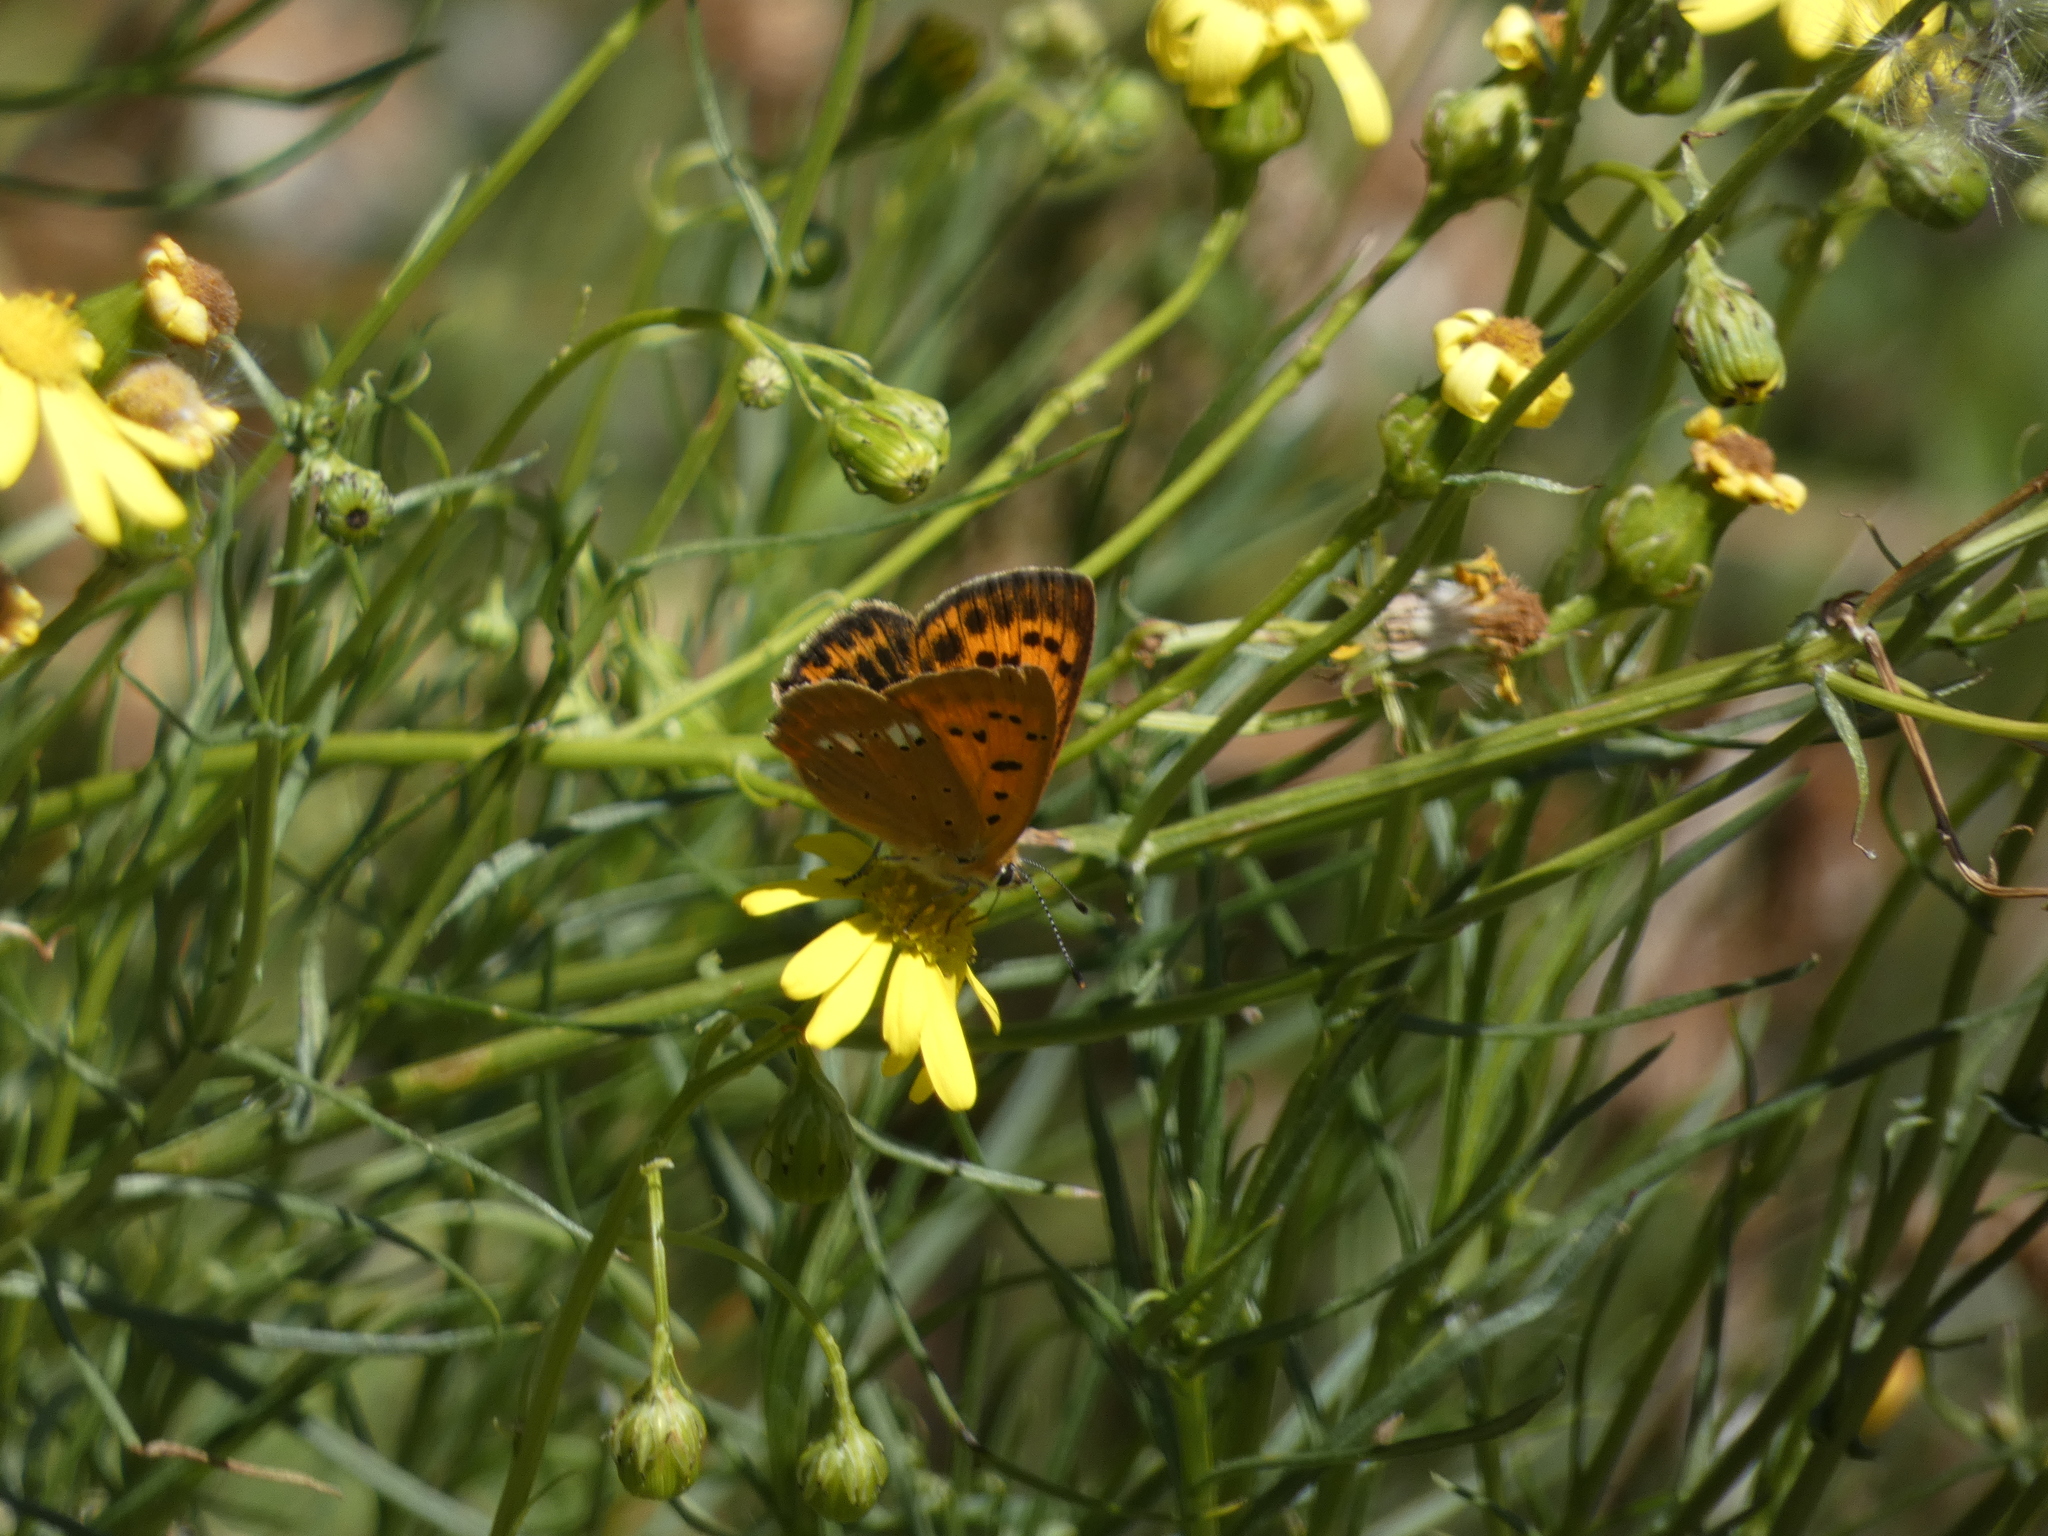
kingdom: Animalia
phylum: Arthropoda
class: Insecta
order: Lepidoptera
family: Lycaenidae
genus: Lycaena
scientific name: Lycaena virgaureae
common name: Scarce copper
